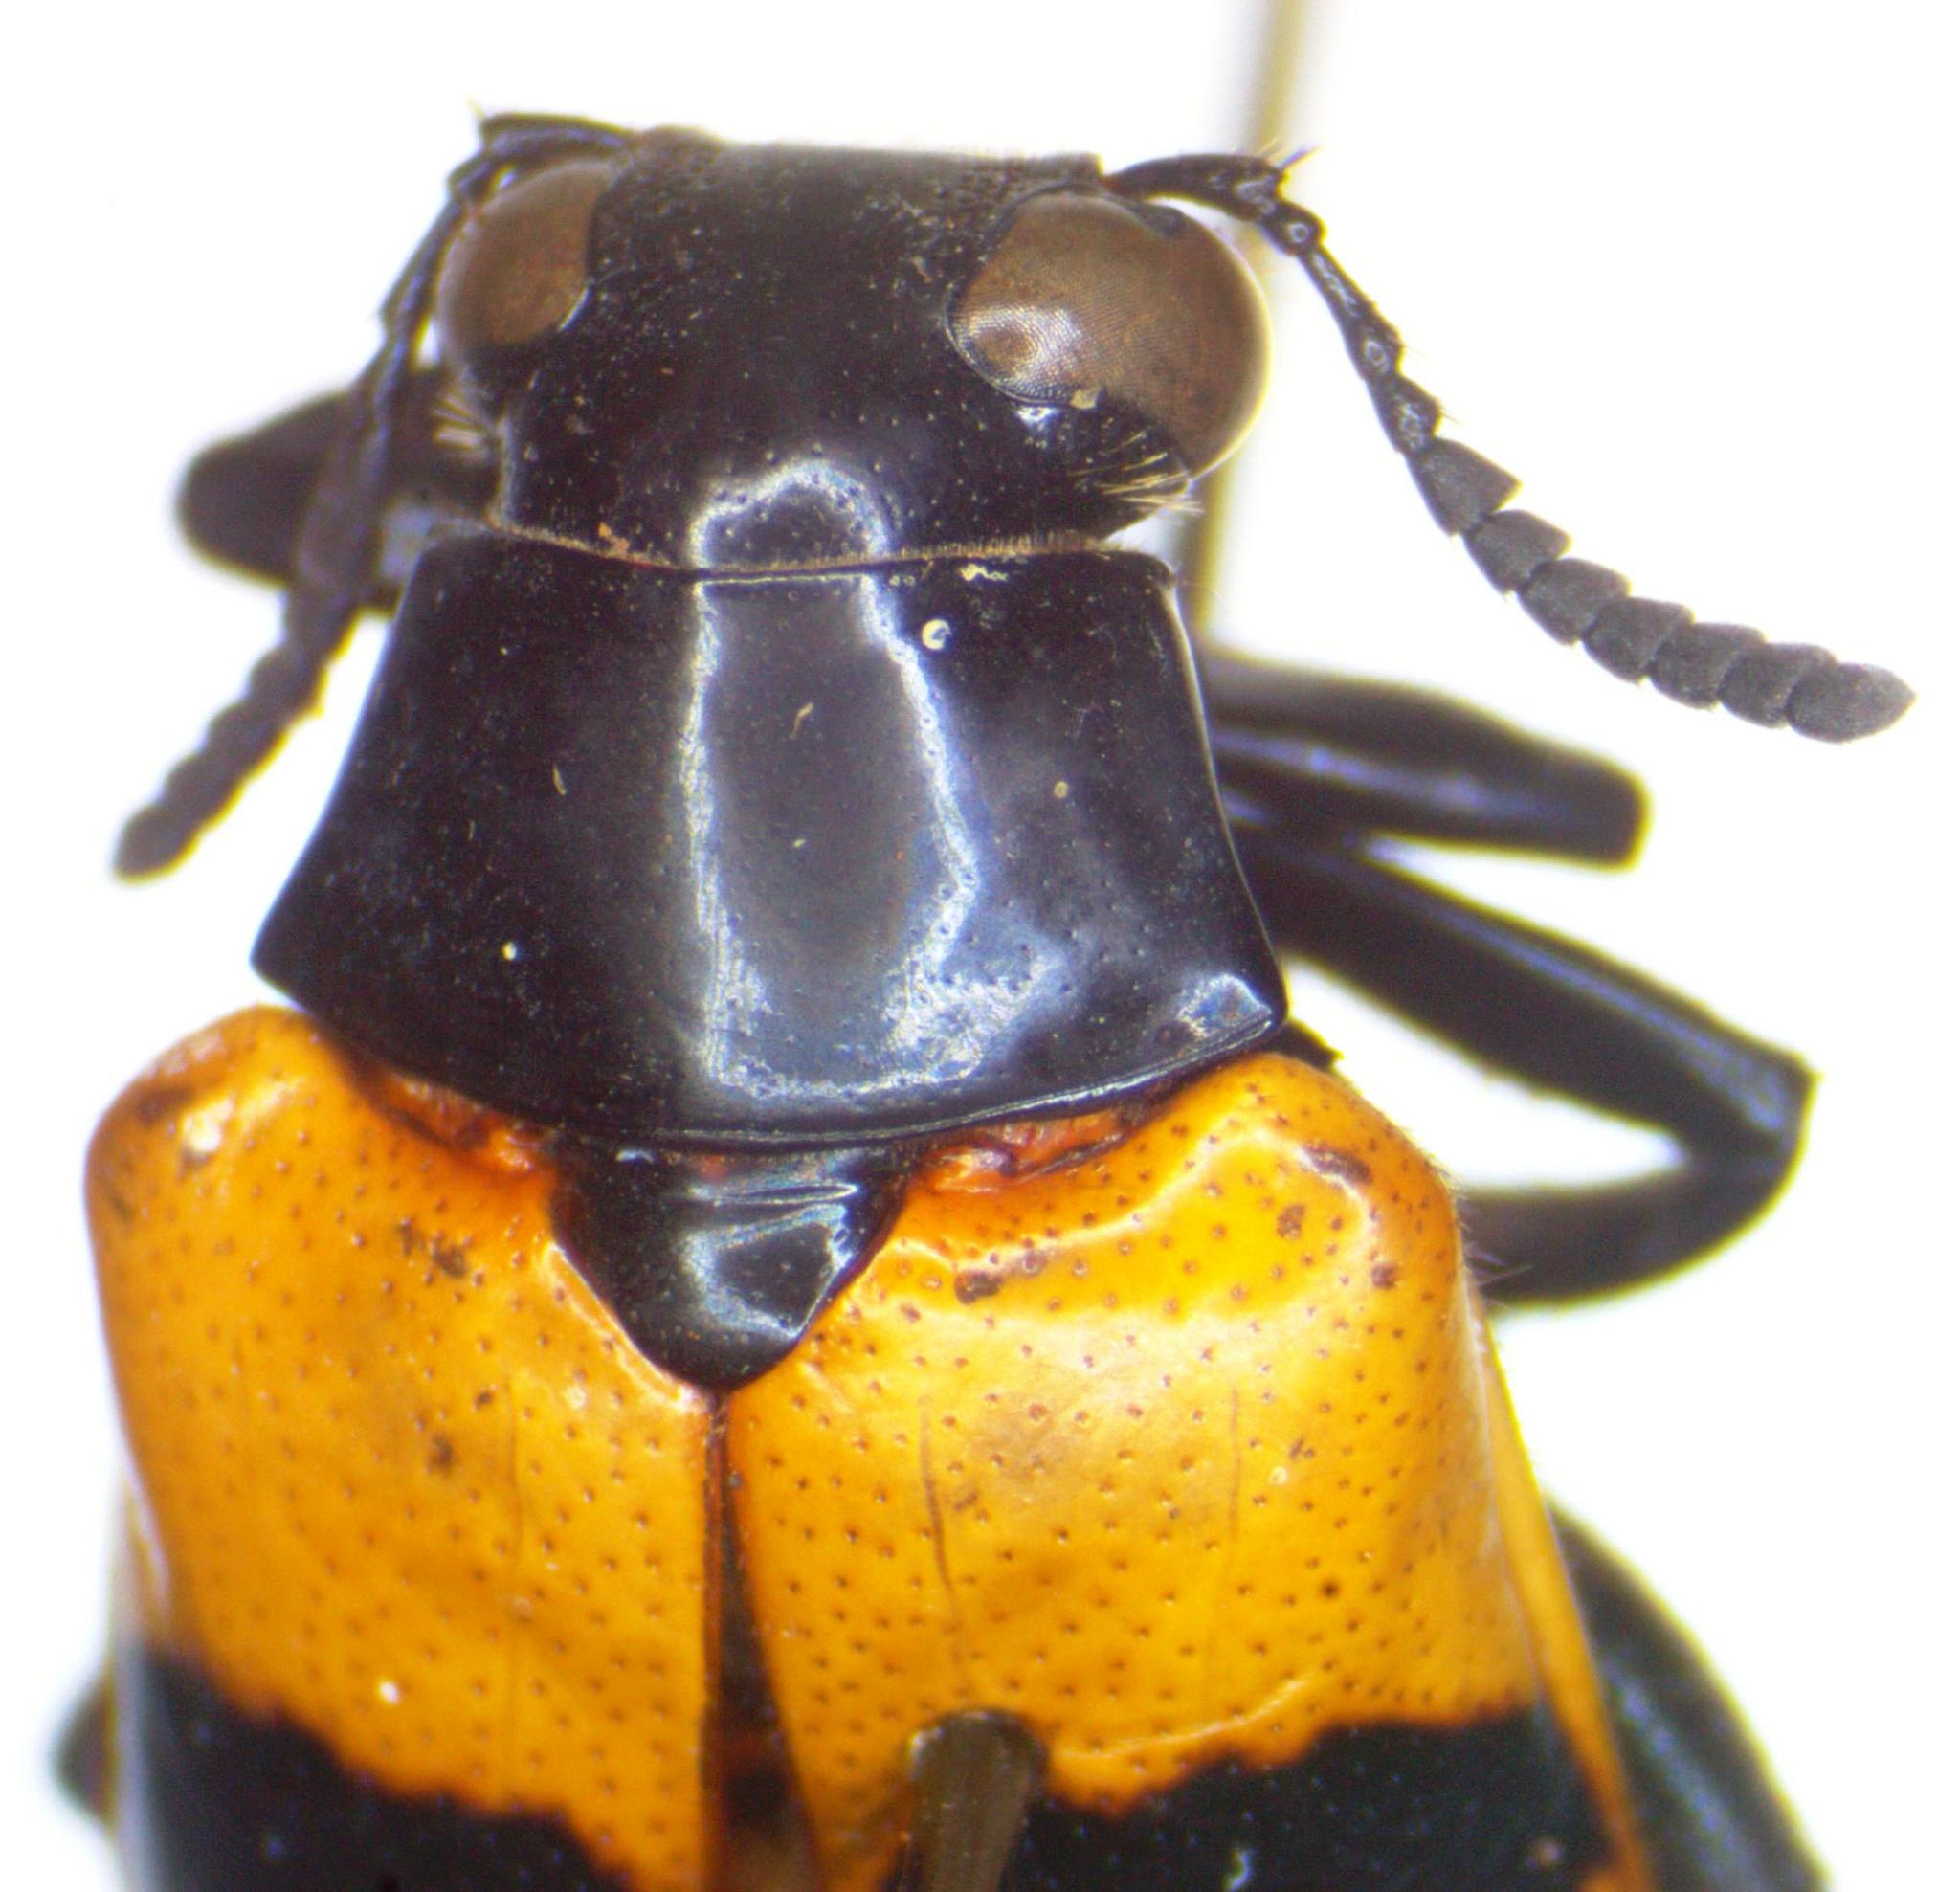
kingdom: Animalia
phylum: Arthropoda
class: Insecta
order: Coleoptera
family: Megalopodidae
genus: Mastostethus
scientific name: Mastostethus nigrocinctus
